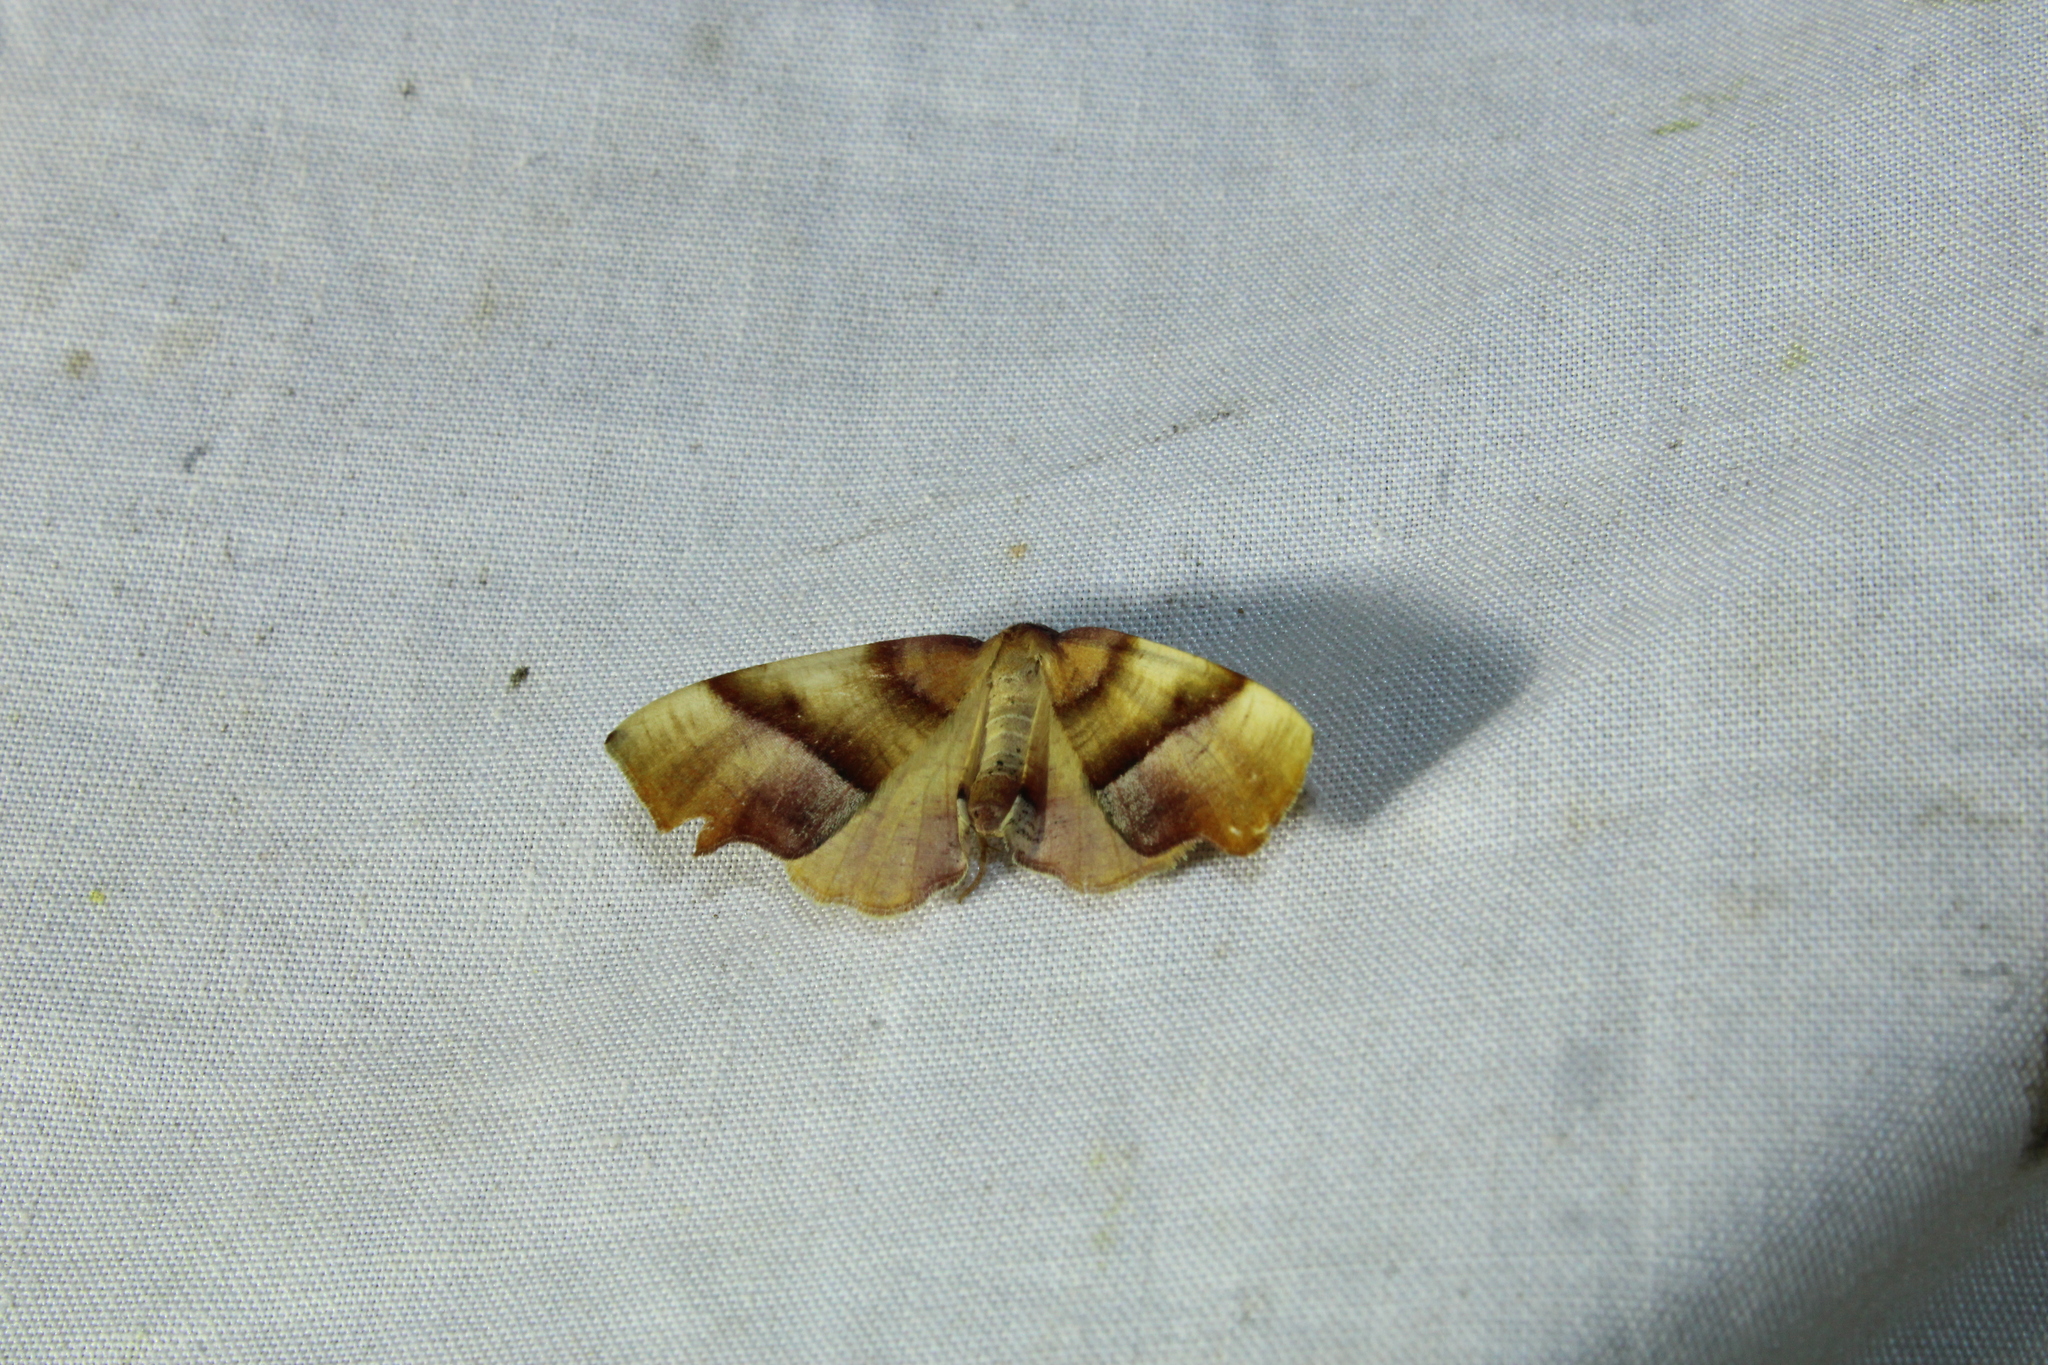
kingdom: Animalia
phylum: Arthropoda
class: Insecta
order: Lepidoptera
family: Geometridae
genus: Plagodis
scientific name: Plagodis phlogosaria
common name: Straight-lined plagodis
